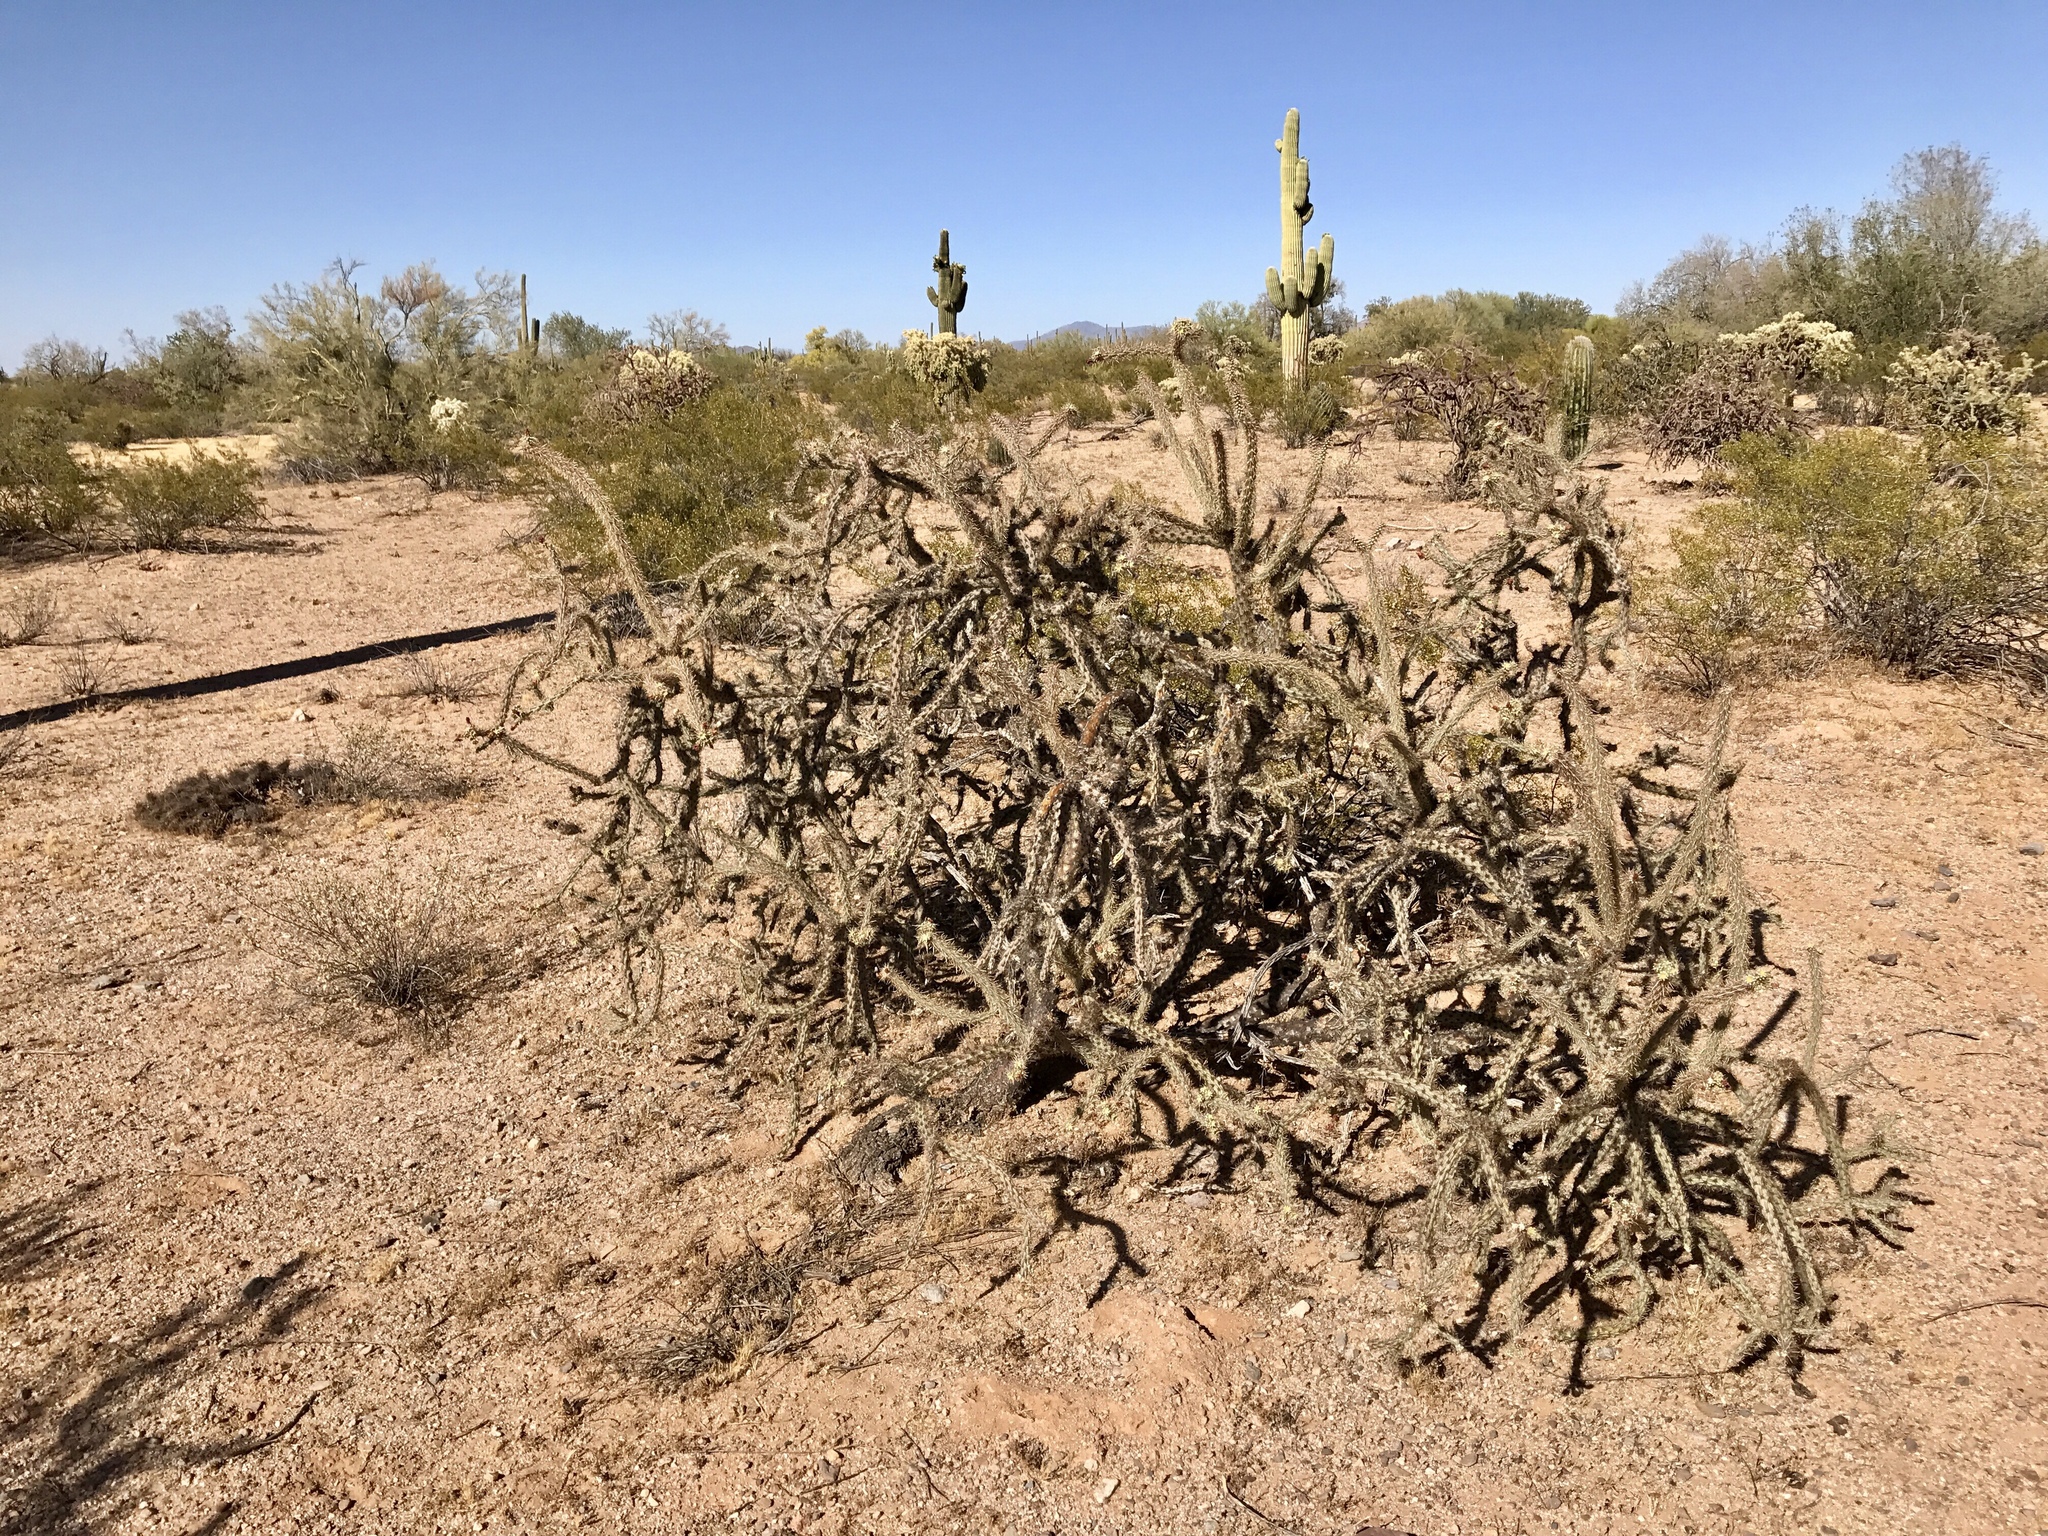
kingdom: Plantae
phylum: Tracheophyta
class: Magnoliopsida
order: Caryophyllales
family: Cactaceae
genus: Cylindropuntia
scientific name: Cylindropuntia acanthocarpa
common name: Buckhorn cholla
